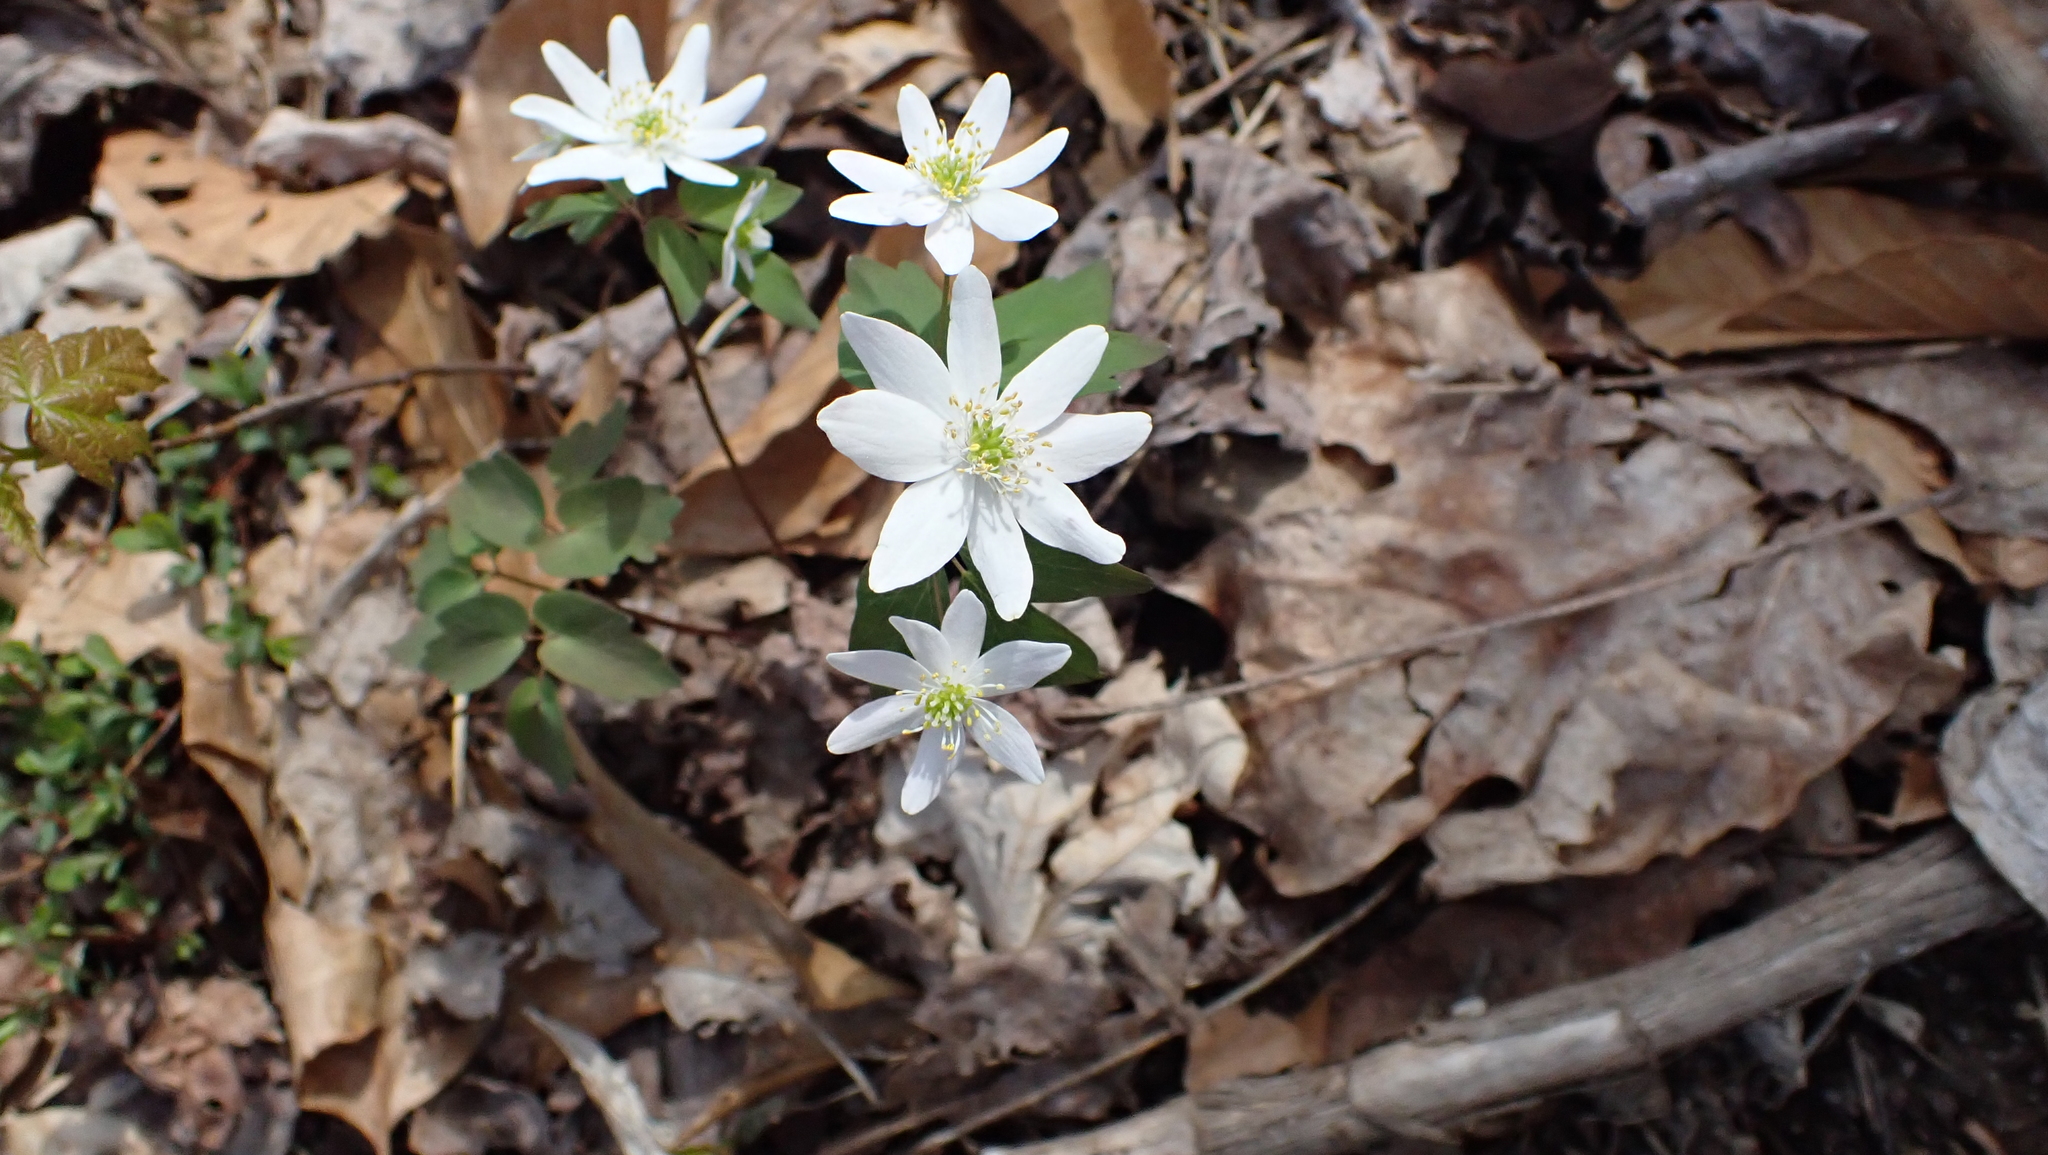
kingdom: Plantae
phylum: Tracheophyta
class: Magnoliopsida
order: Ranunculales
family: Ranunculaceae
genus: Thalictrum
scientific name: Thalictrum thalictroides
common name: Rue-anemone
